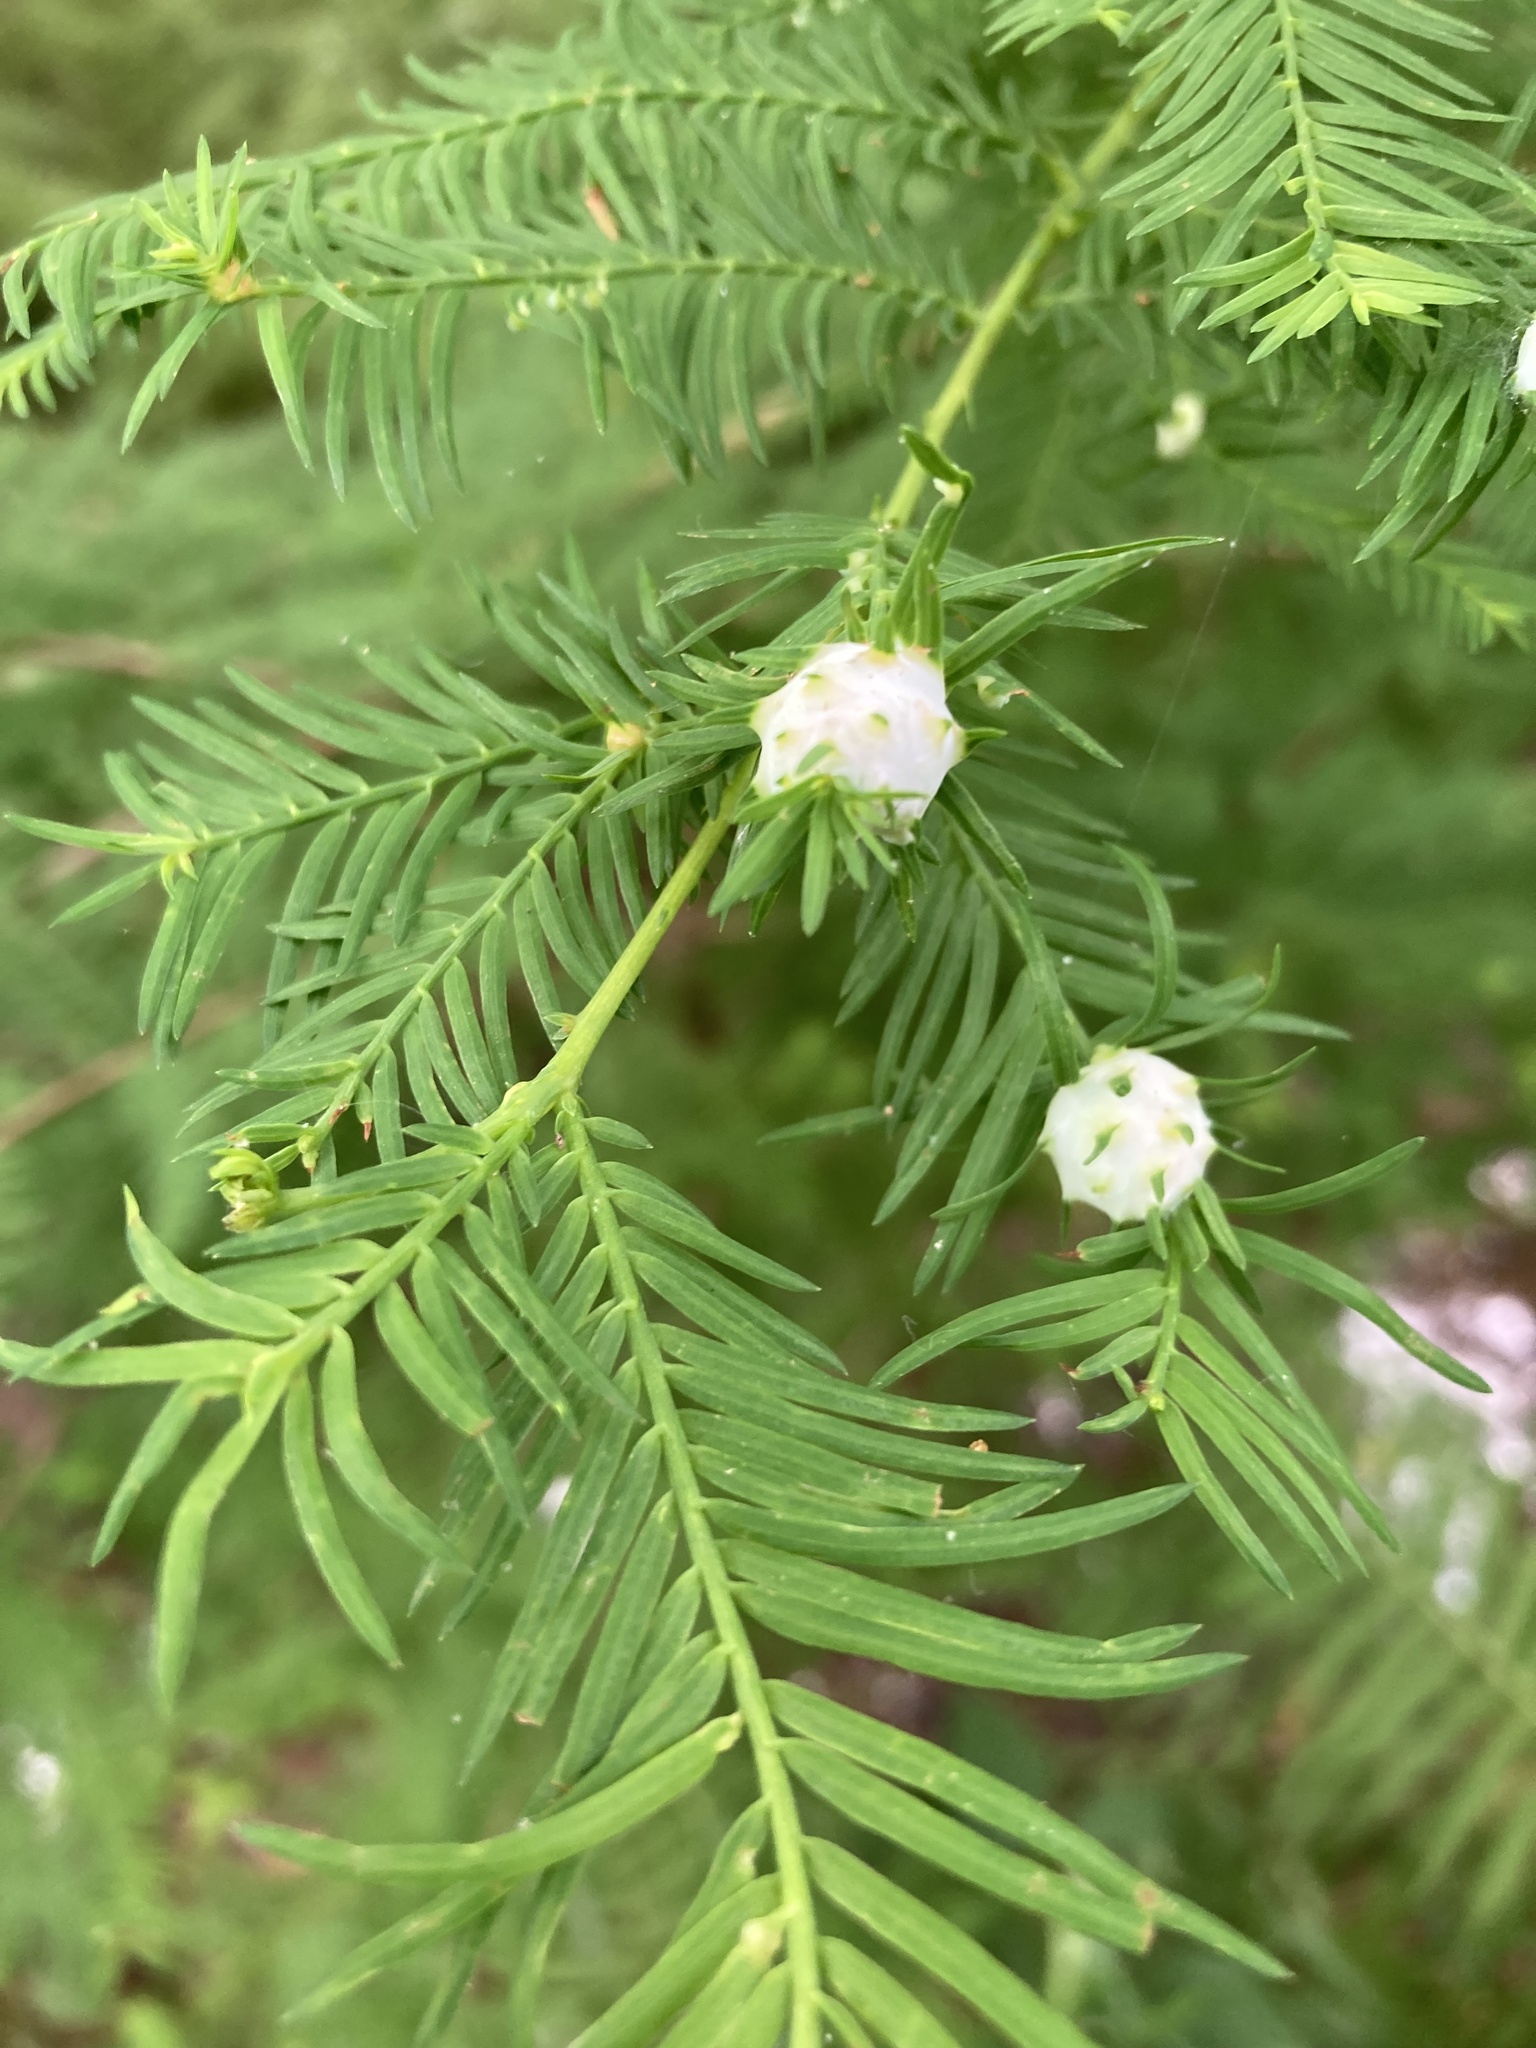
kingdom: Animalia
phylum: Arthropoda
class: Insecta
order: Diptera
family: Cecidomyiidae
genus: Taxodiomyia
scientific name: Taxodiomyia cupressiananassa
